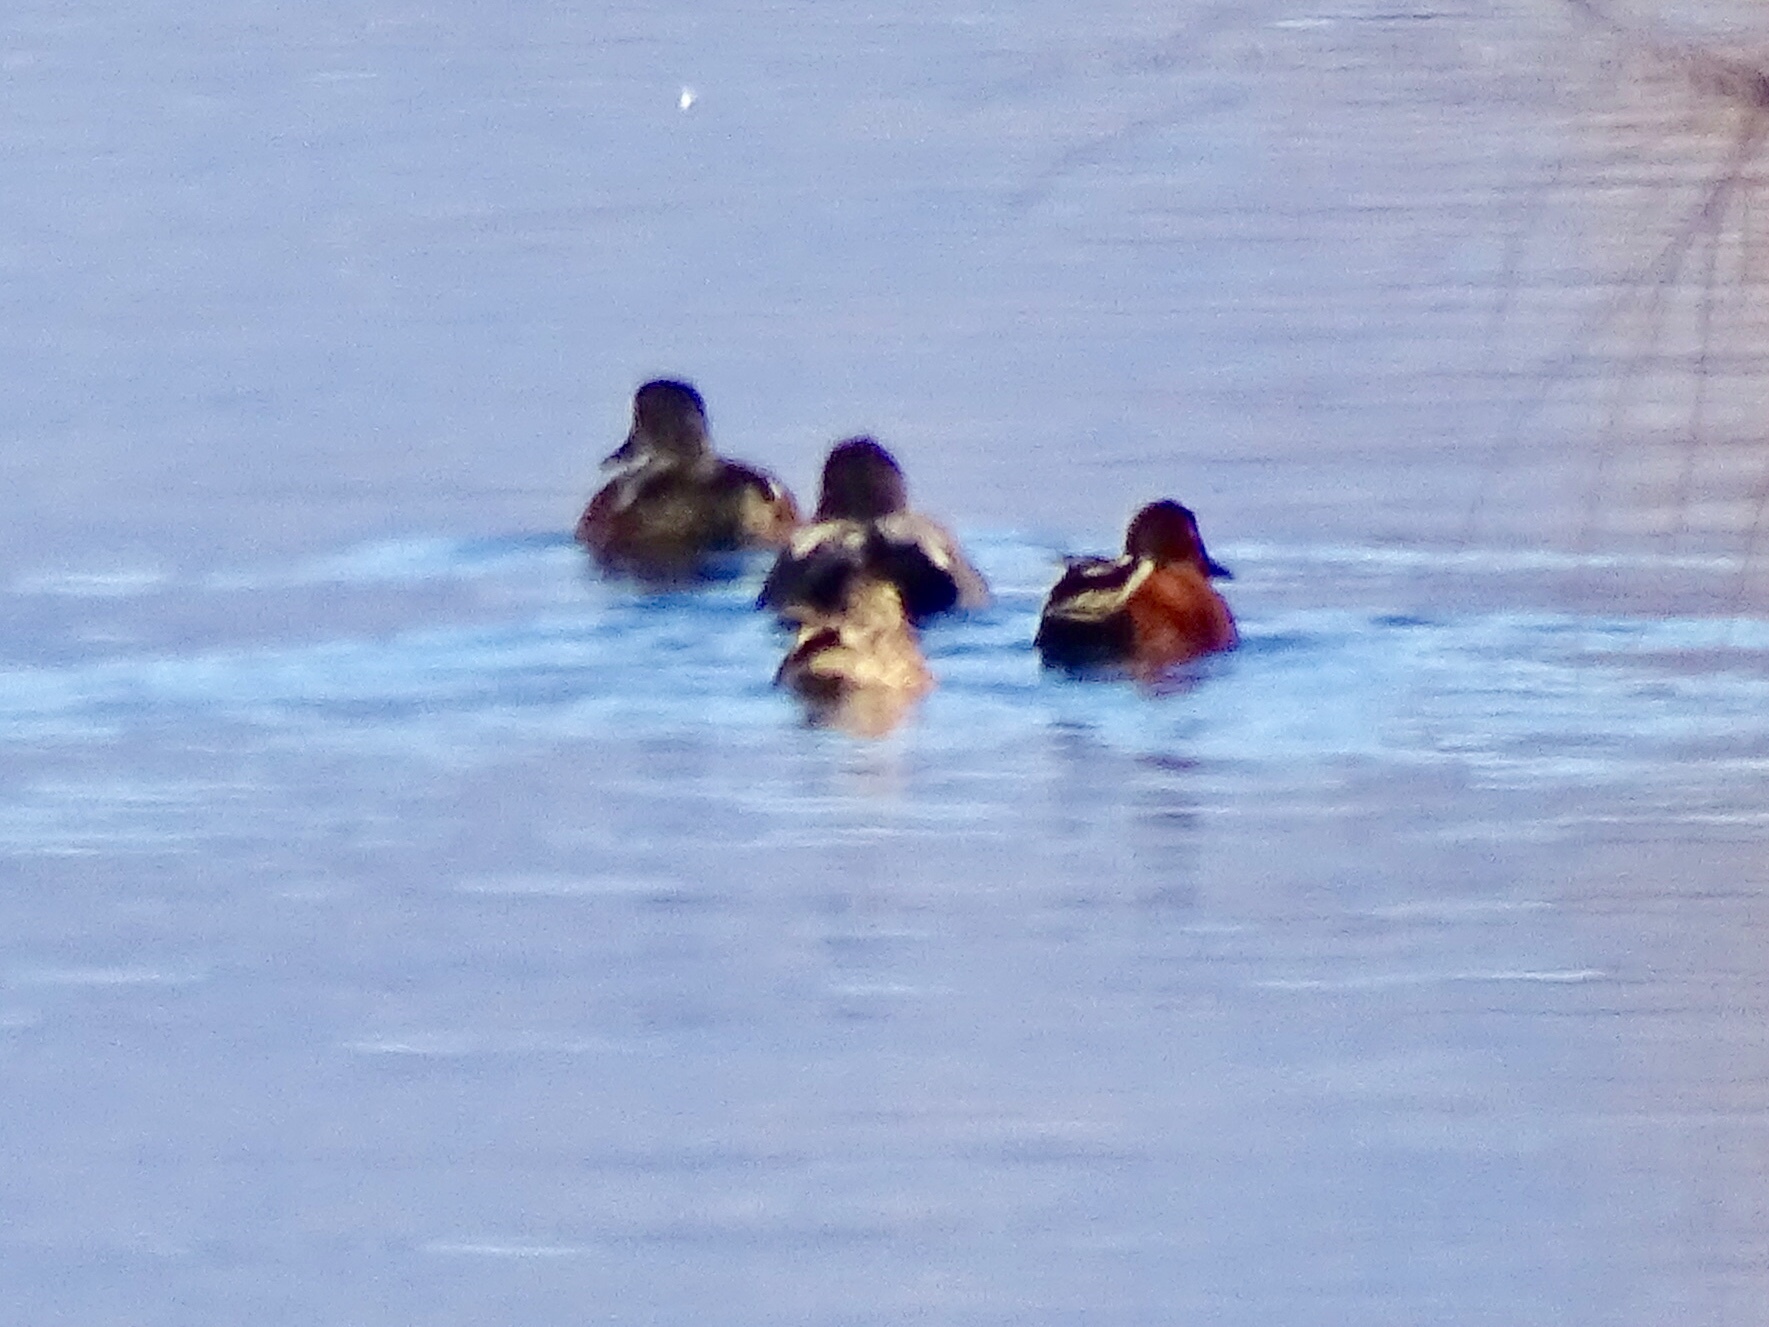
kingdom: Animalia
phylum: Chordata
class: Aves
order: Anseriformes
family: Anatidae
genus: Spatula
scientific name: Spatula cyanoptera
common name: Cinnamon teal
